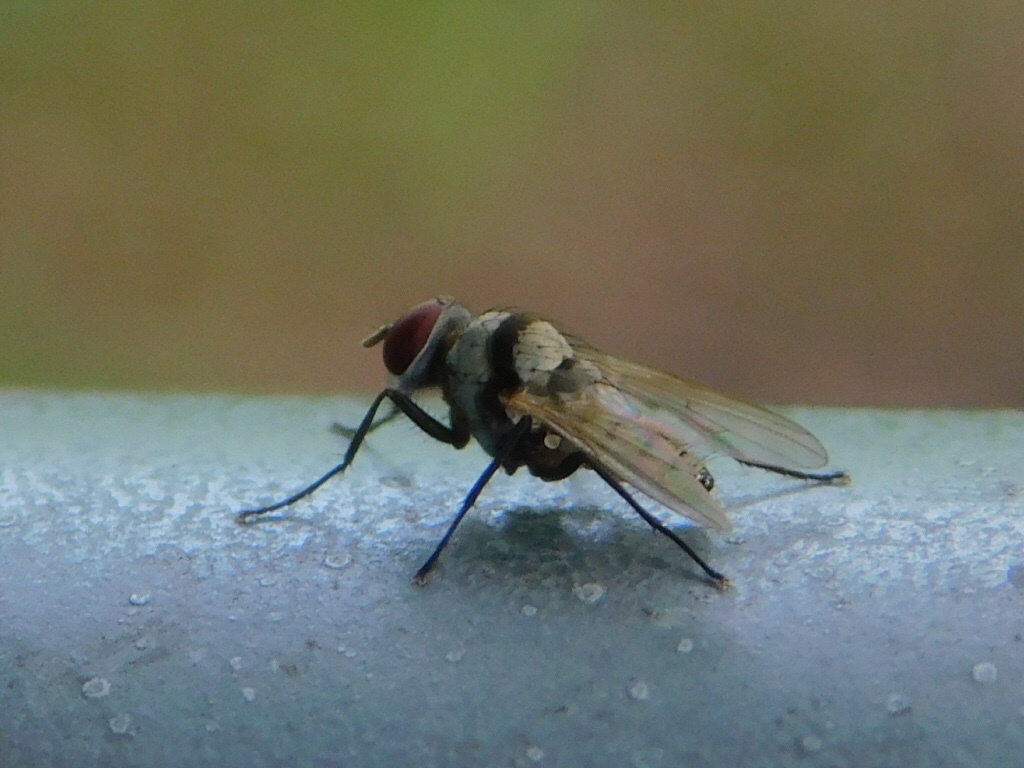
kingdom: Animalia
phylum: Arthropoda
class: Insecta
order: Diptera
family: Anthomyiidae
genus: Anthomyia
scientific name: Anthomyia illocata
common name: Fly
